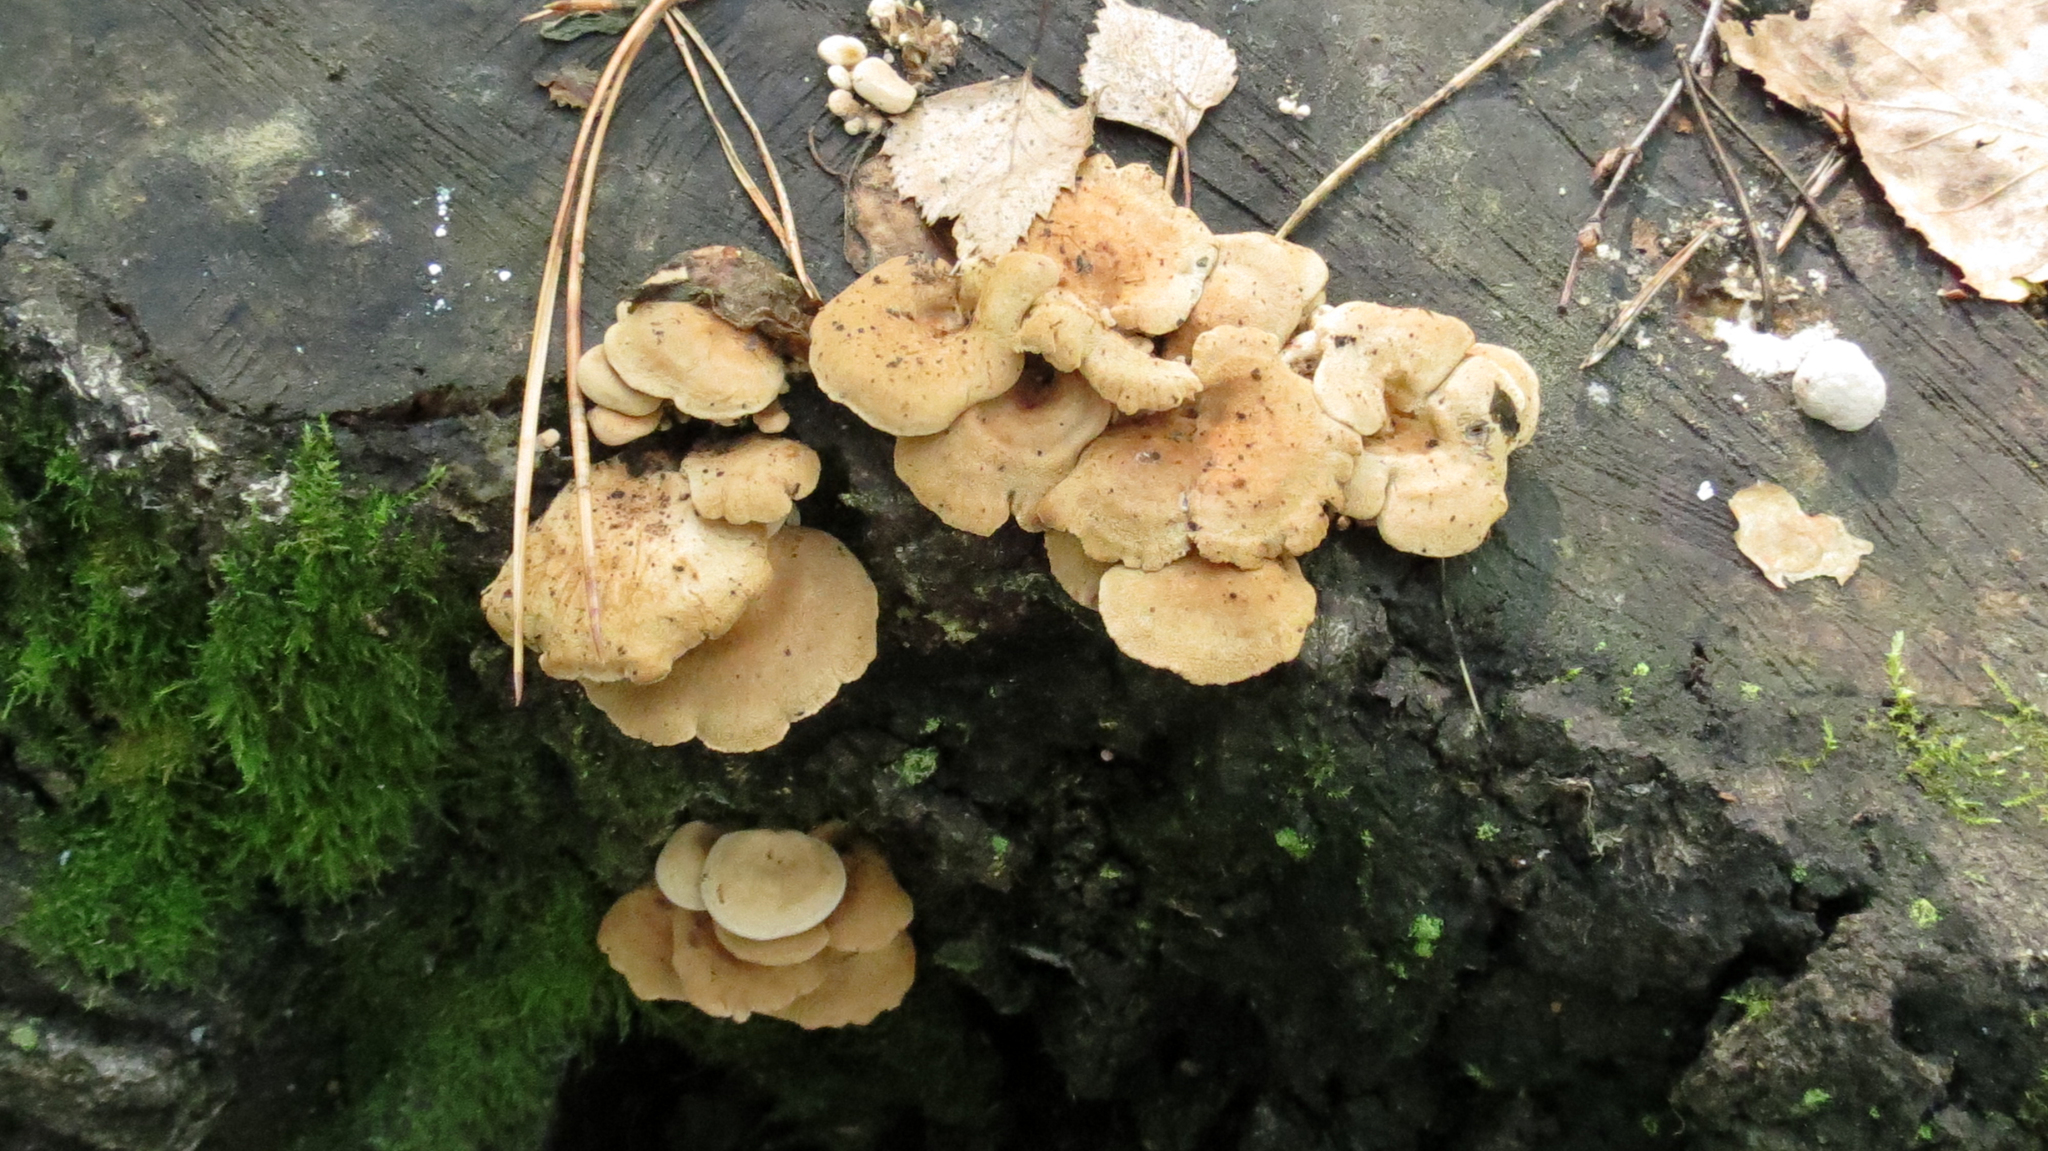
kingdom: Fungi
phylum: Basidiomycota
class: Agaricomycetes
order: Agaricales
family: Mycenaceae
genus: Panellus
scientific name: Panellus stipticus
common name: Bitter oysterling
